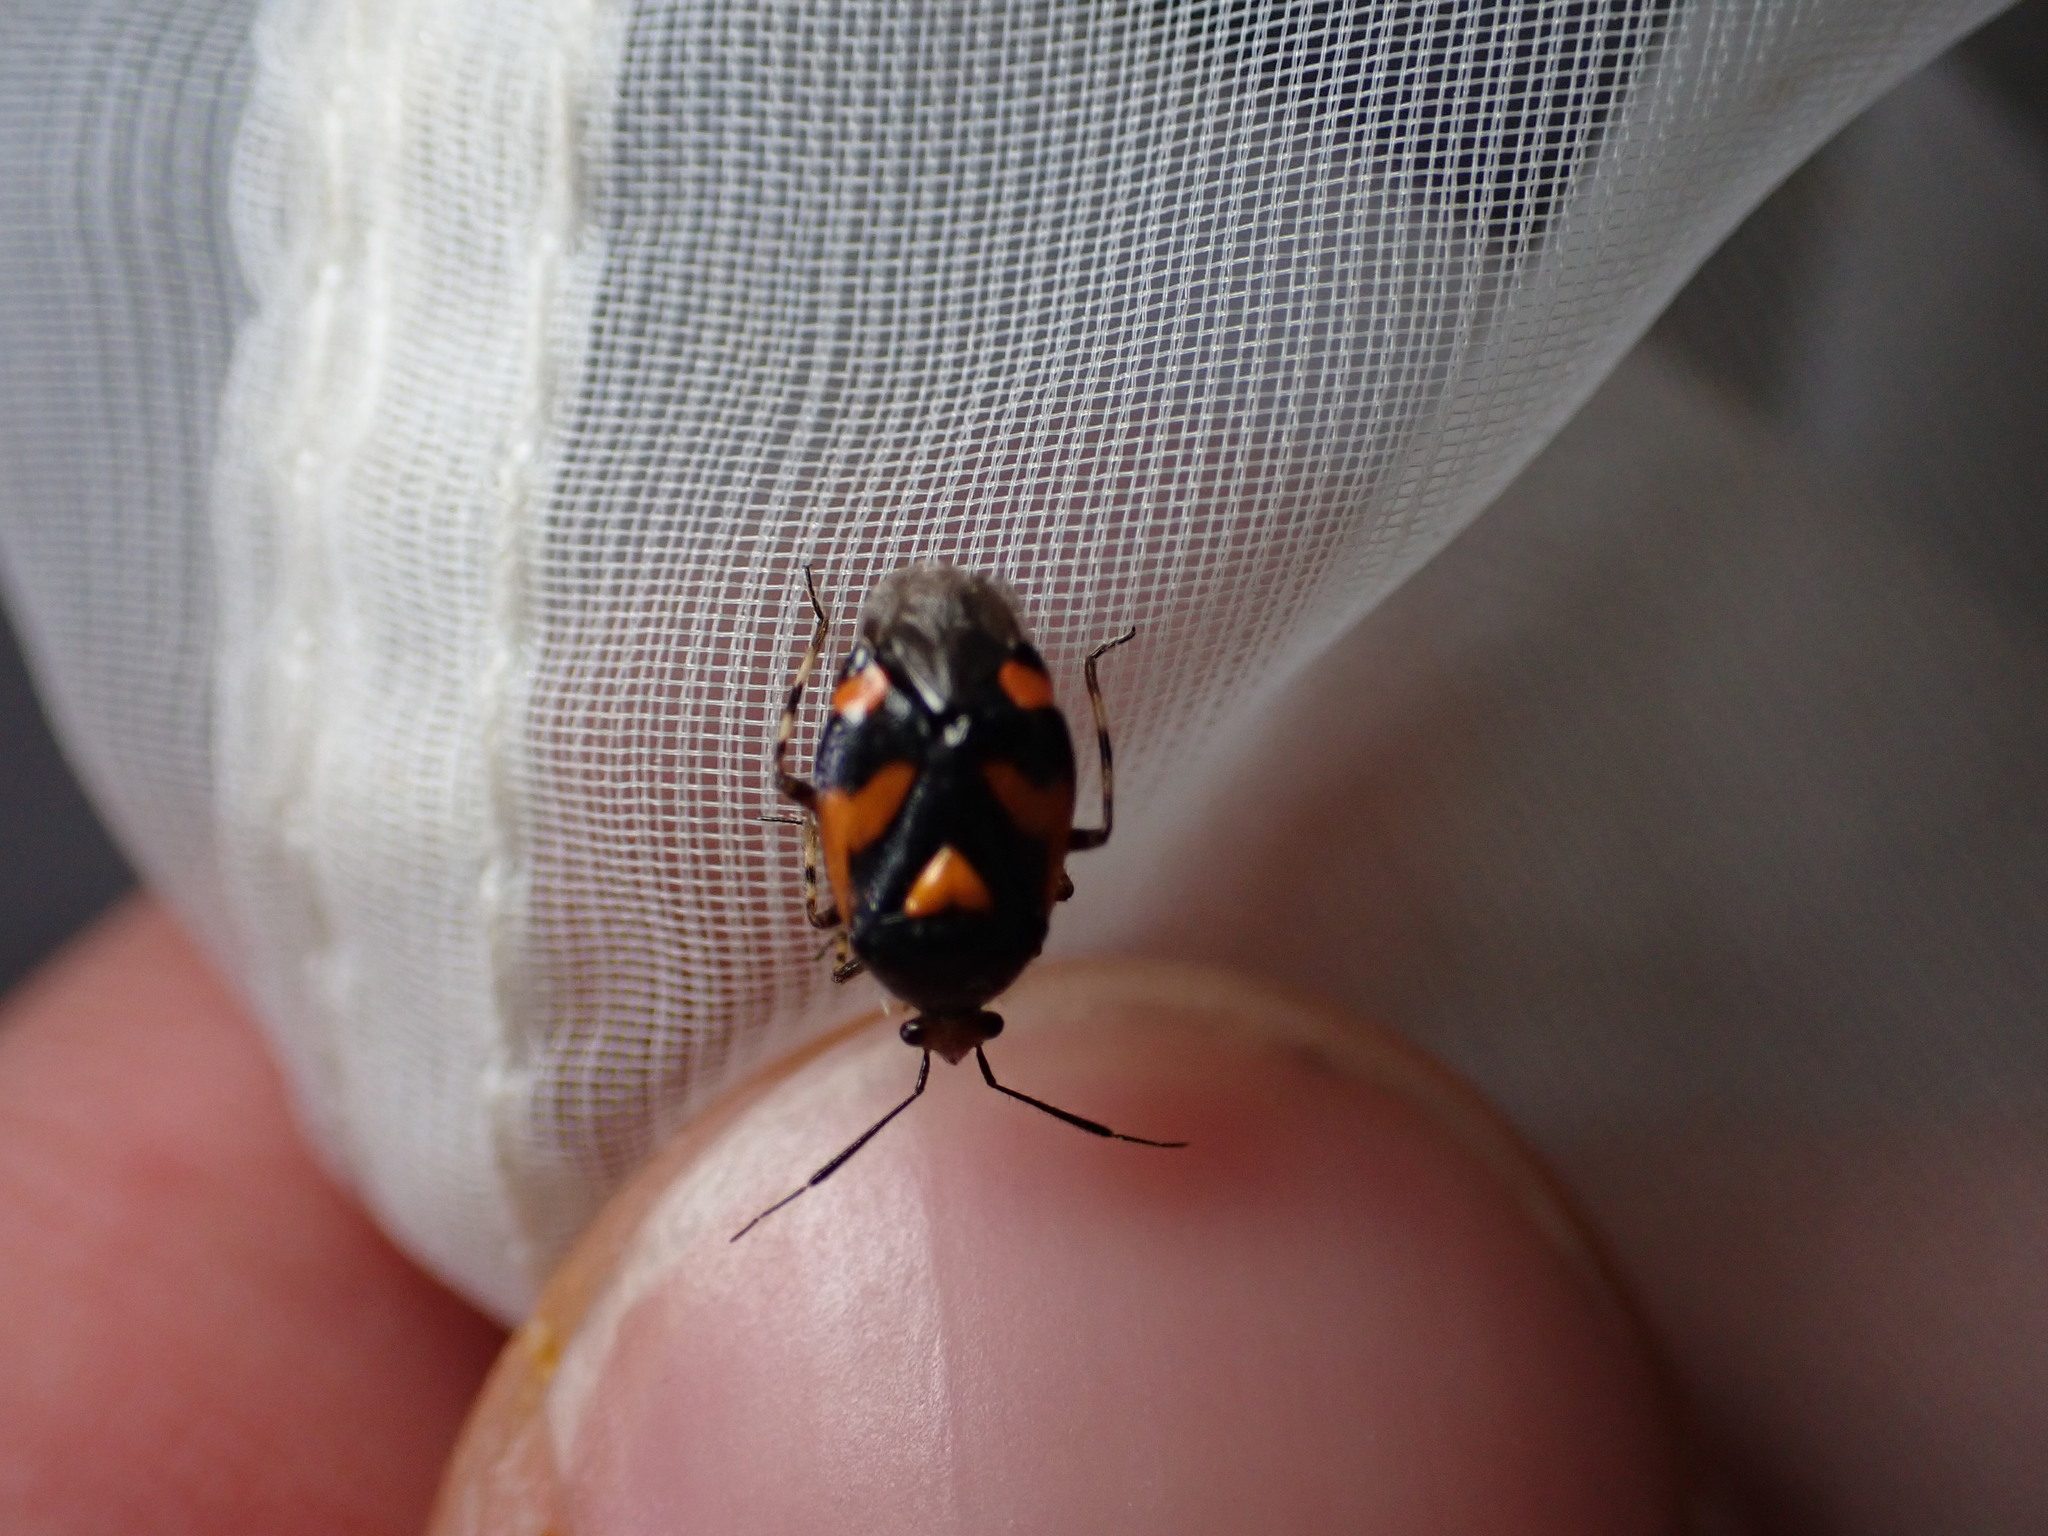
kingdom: Animalia
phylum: Arthropoda
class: Insecta
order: Hemiptera
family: Miridae
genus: Deraeocoris
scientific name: Deraeocoris schach
